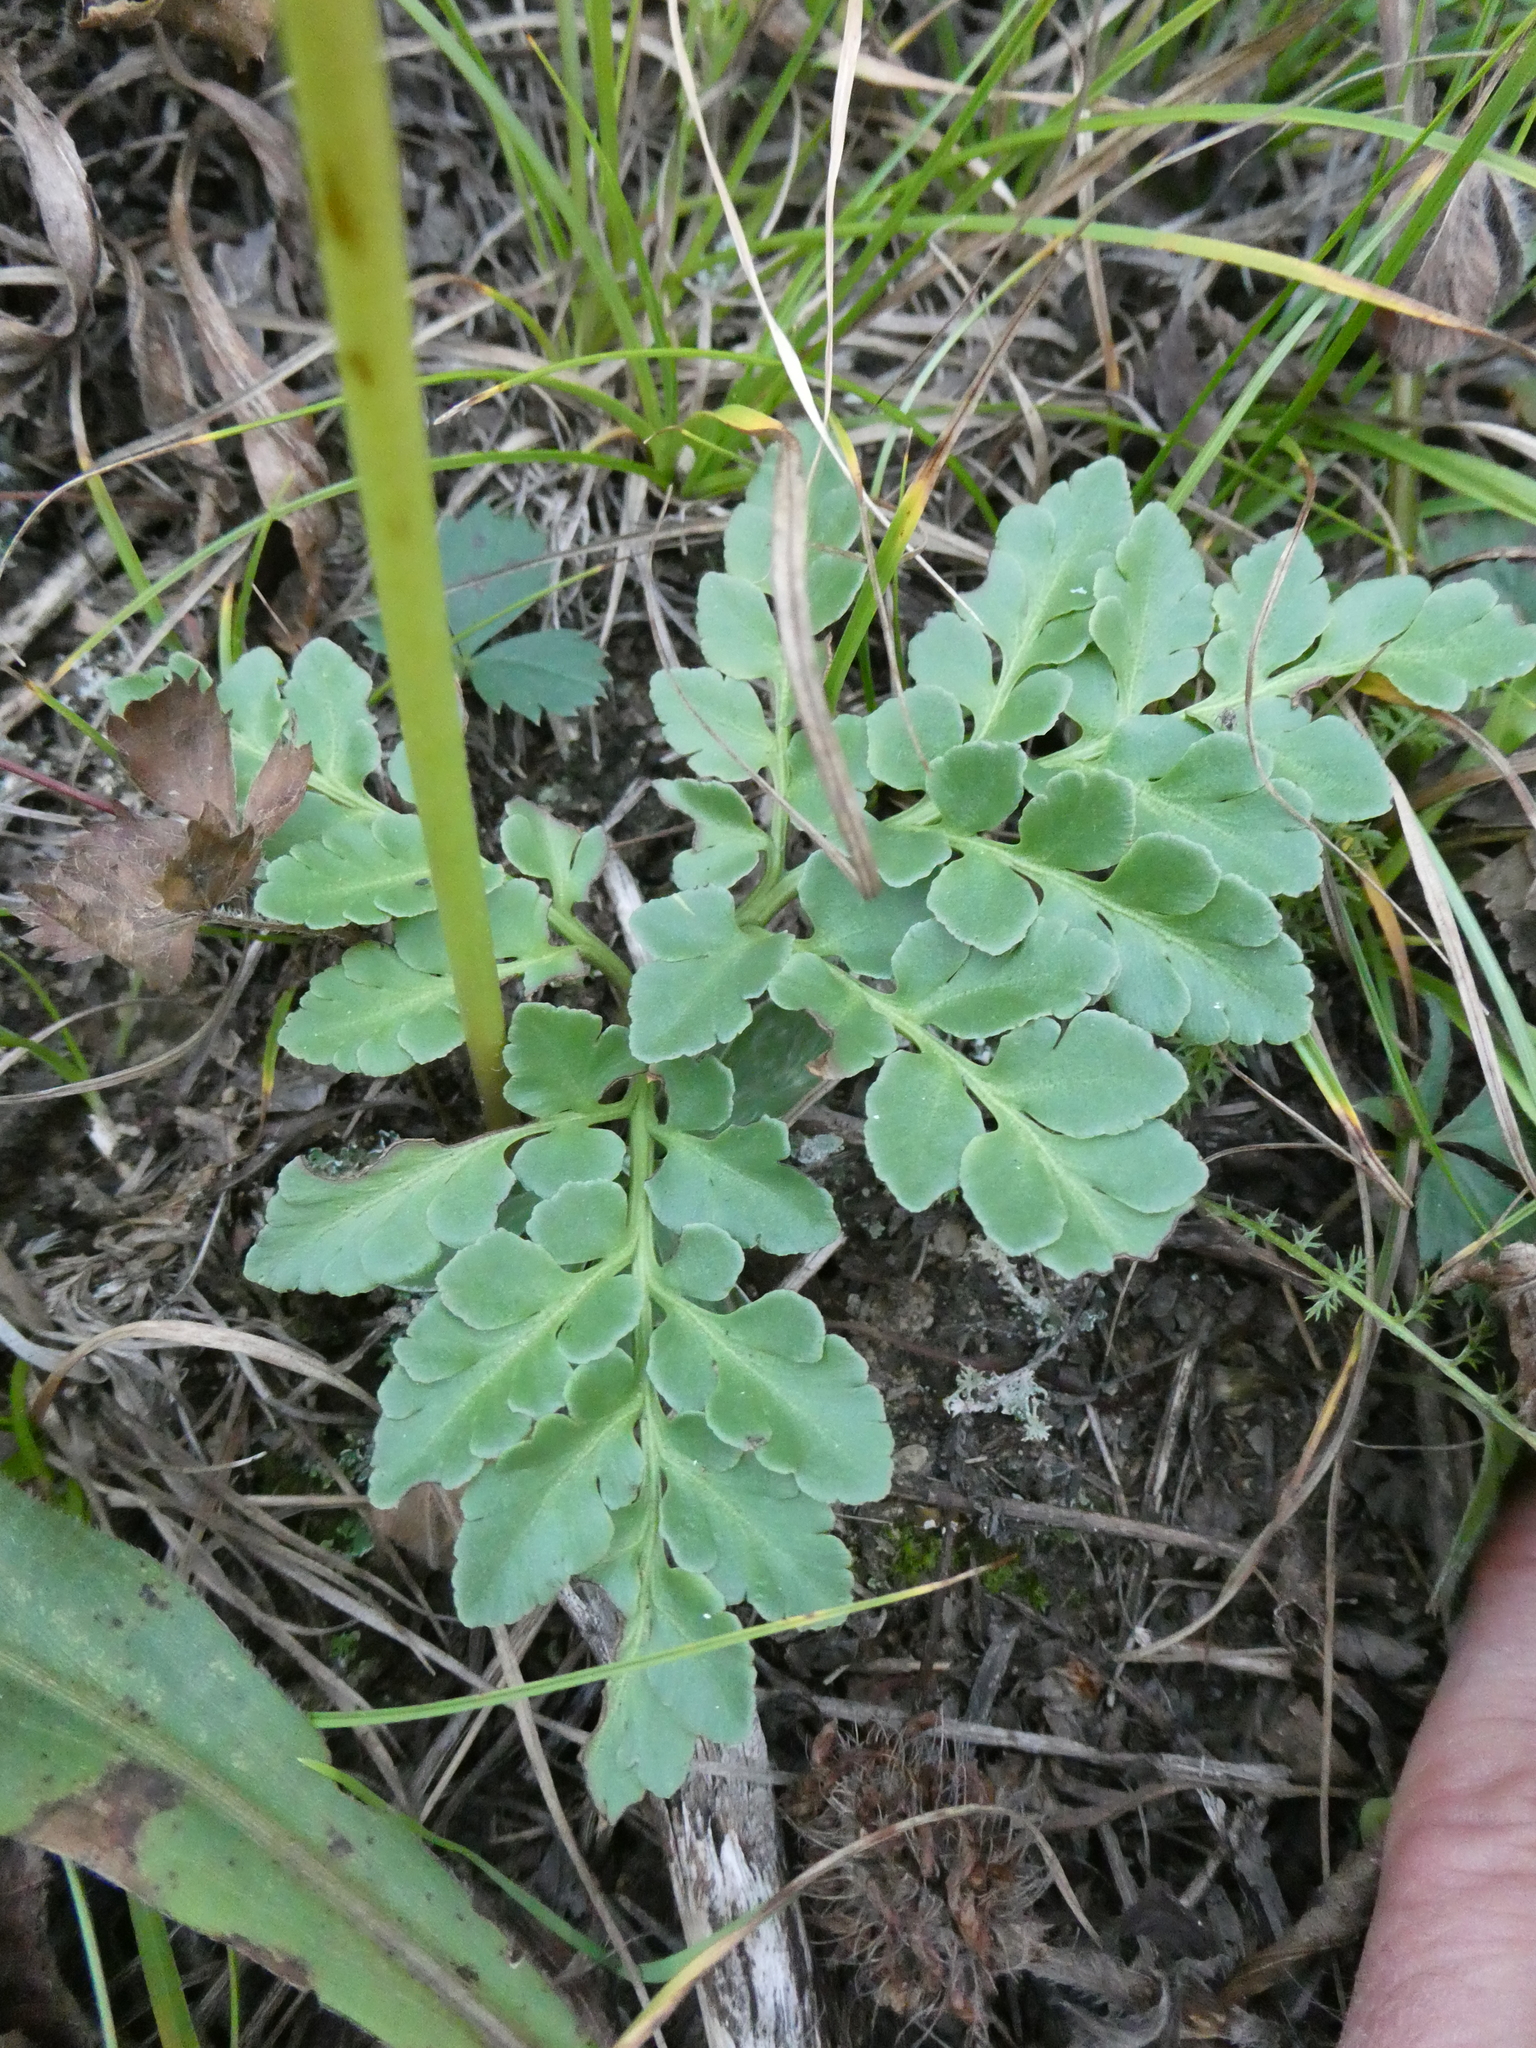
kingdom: Plantae
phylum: Tracheophyta
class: Polypodiopsida
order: Ophioglossales
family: Ophioglossaceae
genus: Sceptridium
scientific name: Sceptridium multifidum
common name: Leathery grape fern
